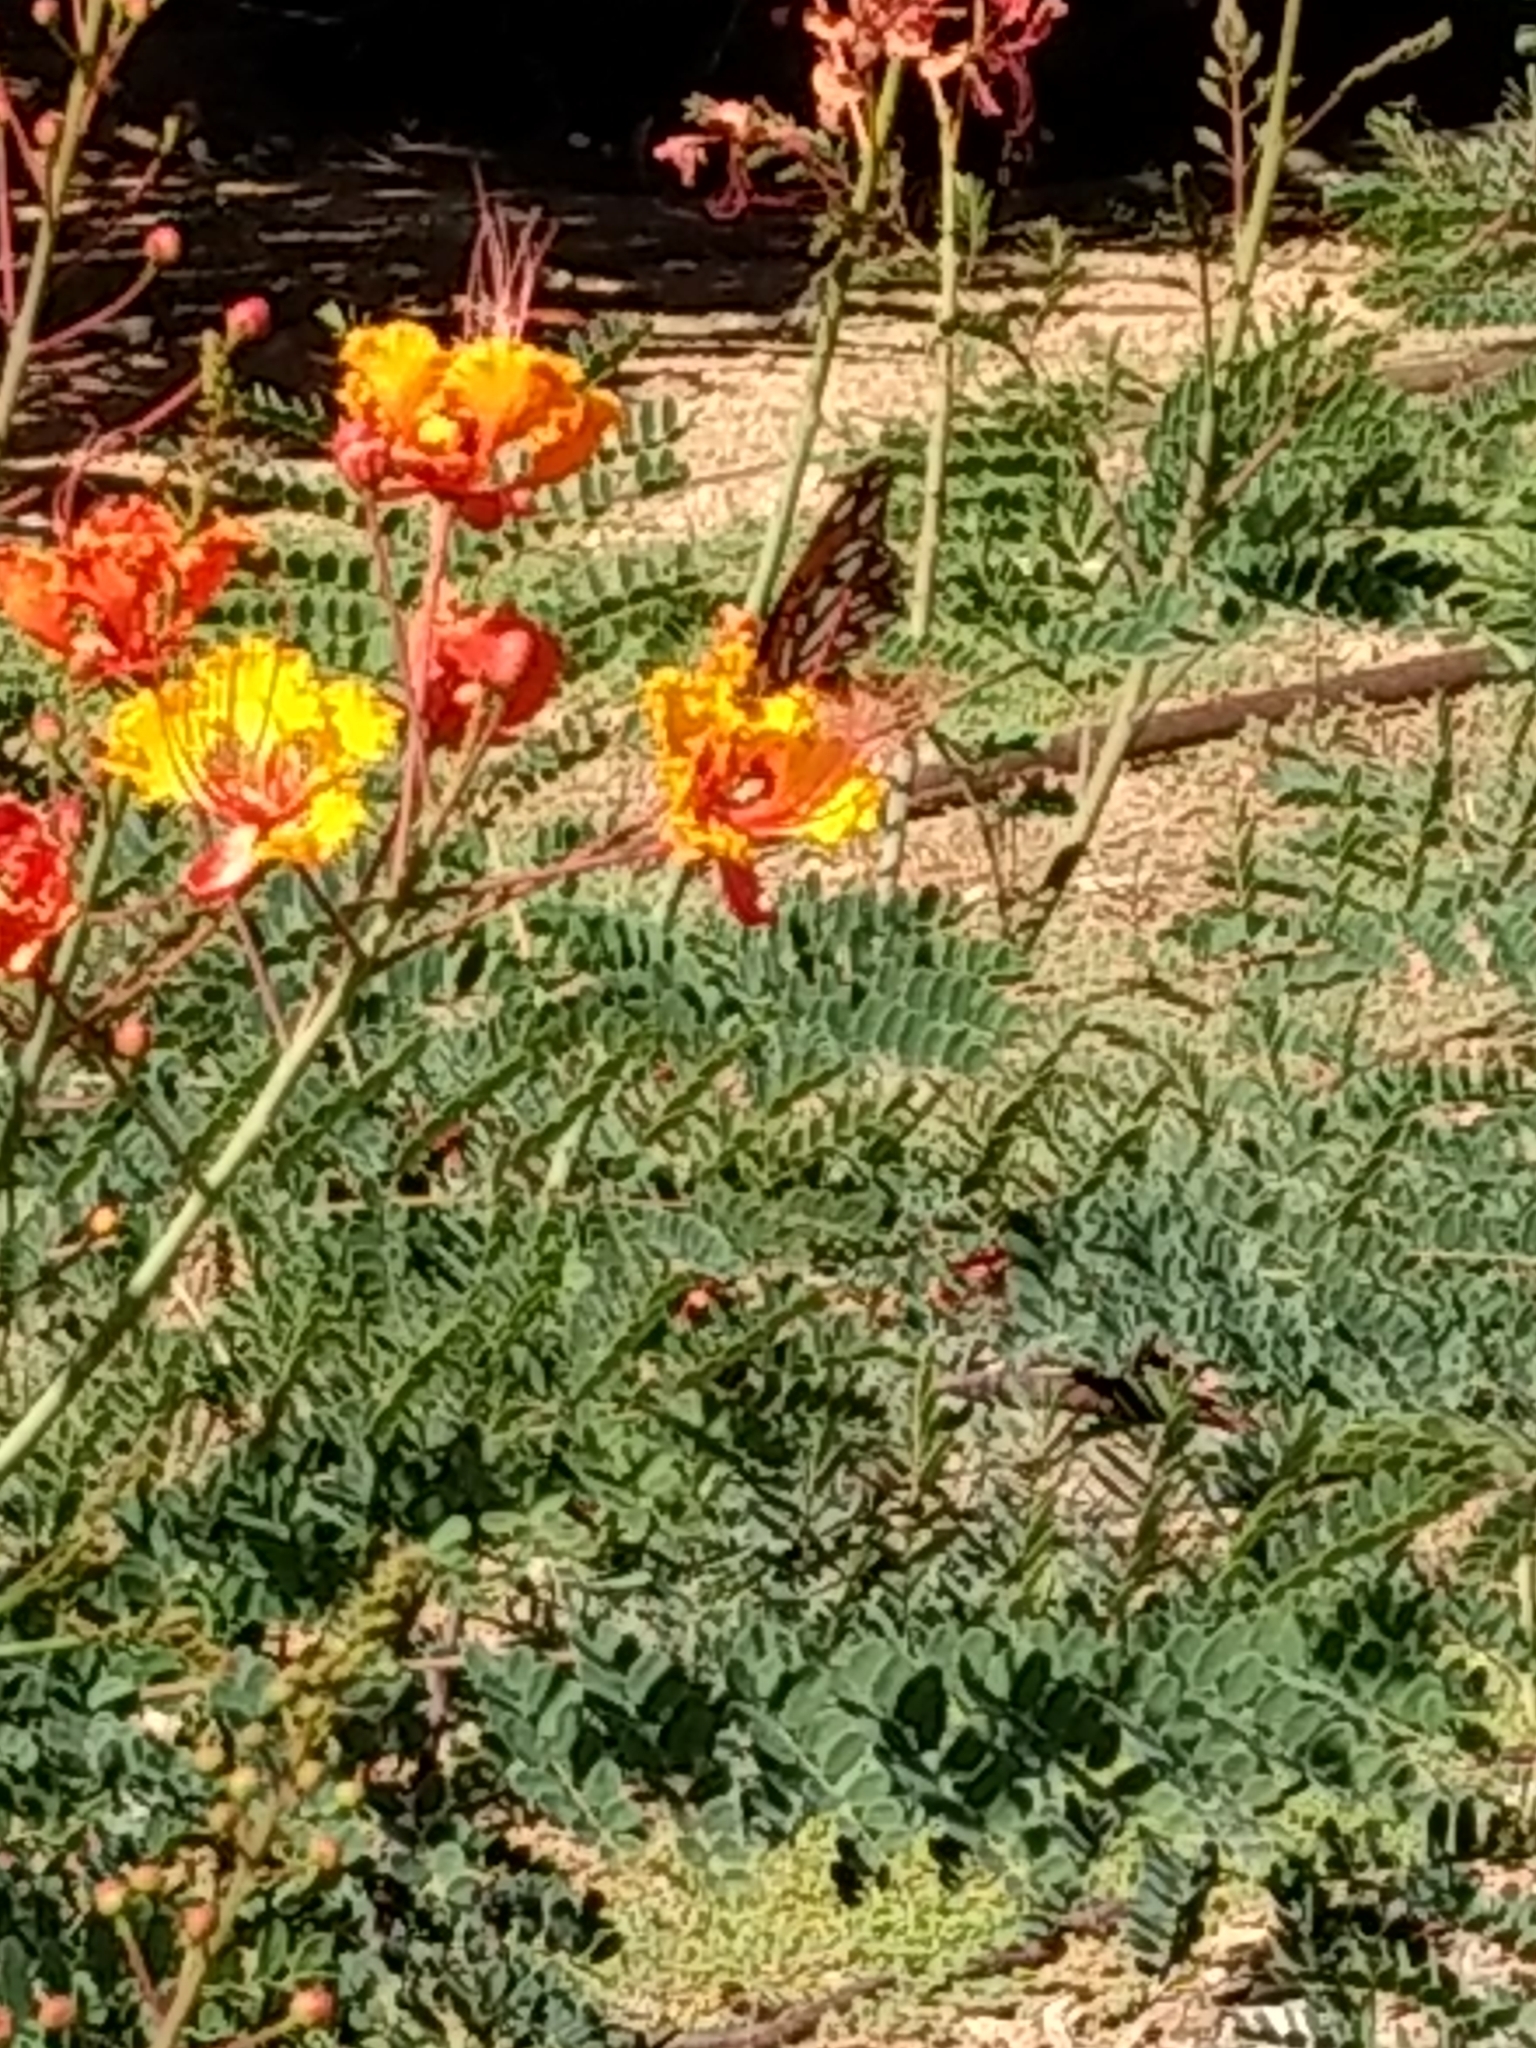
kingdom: Animalia
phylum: Arthropoda
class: Insecta
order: Lepidoptera
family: Nymphalidae
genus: Dione
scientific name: Dione vanillae
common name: Gulf fritillary
